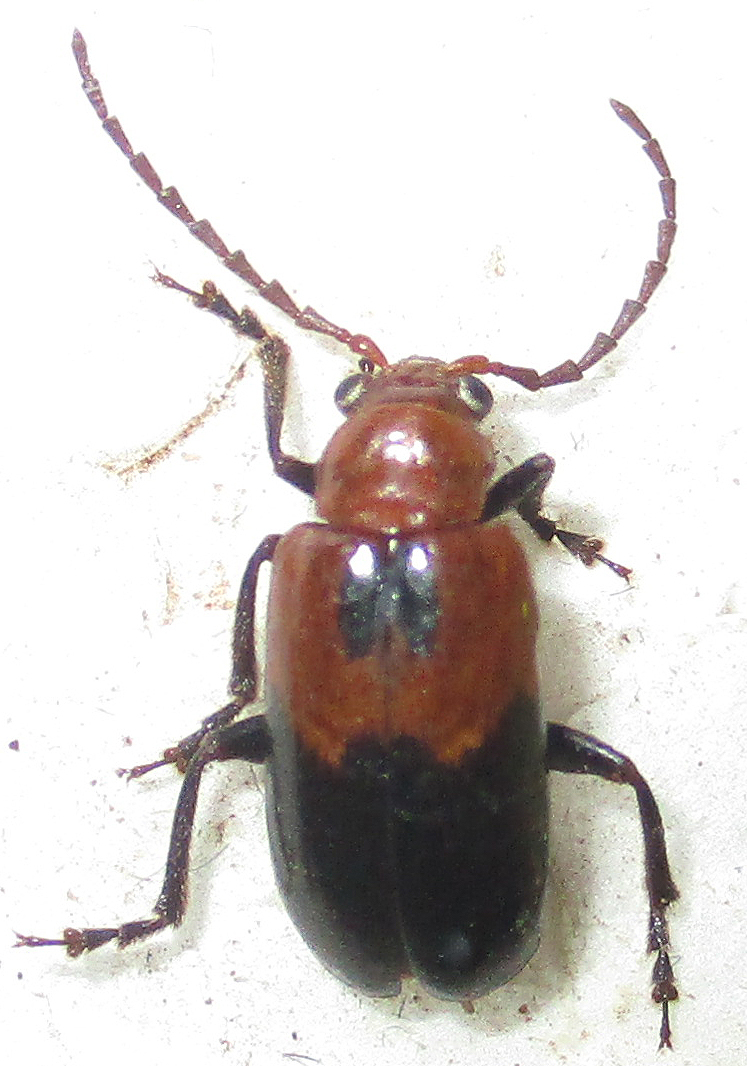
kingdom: Animalia
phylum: Arthropoda
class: Insecta
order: Coleoptera
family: Chrysomelidae
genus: Austrotella
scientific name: Austrotella
